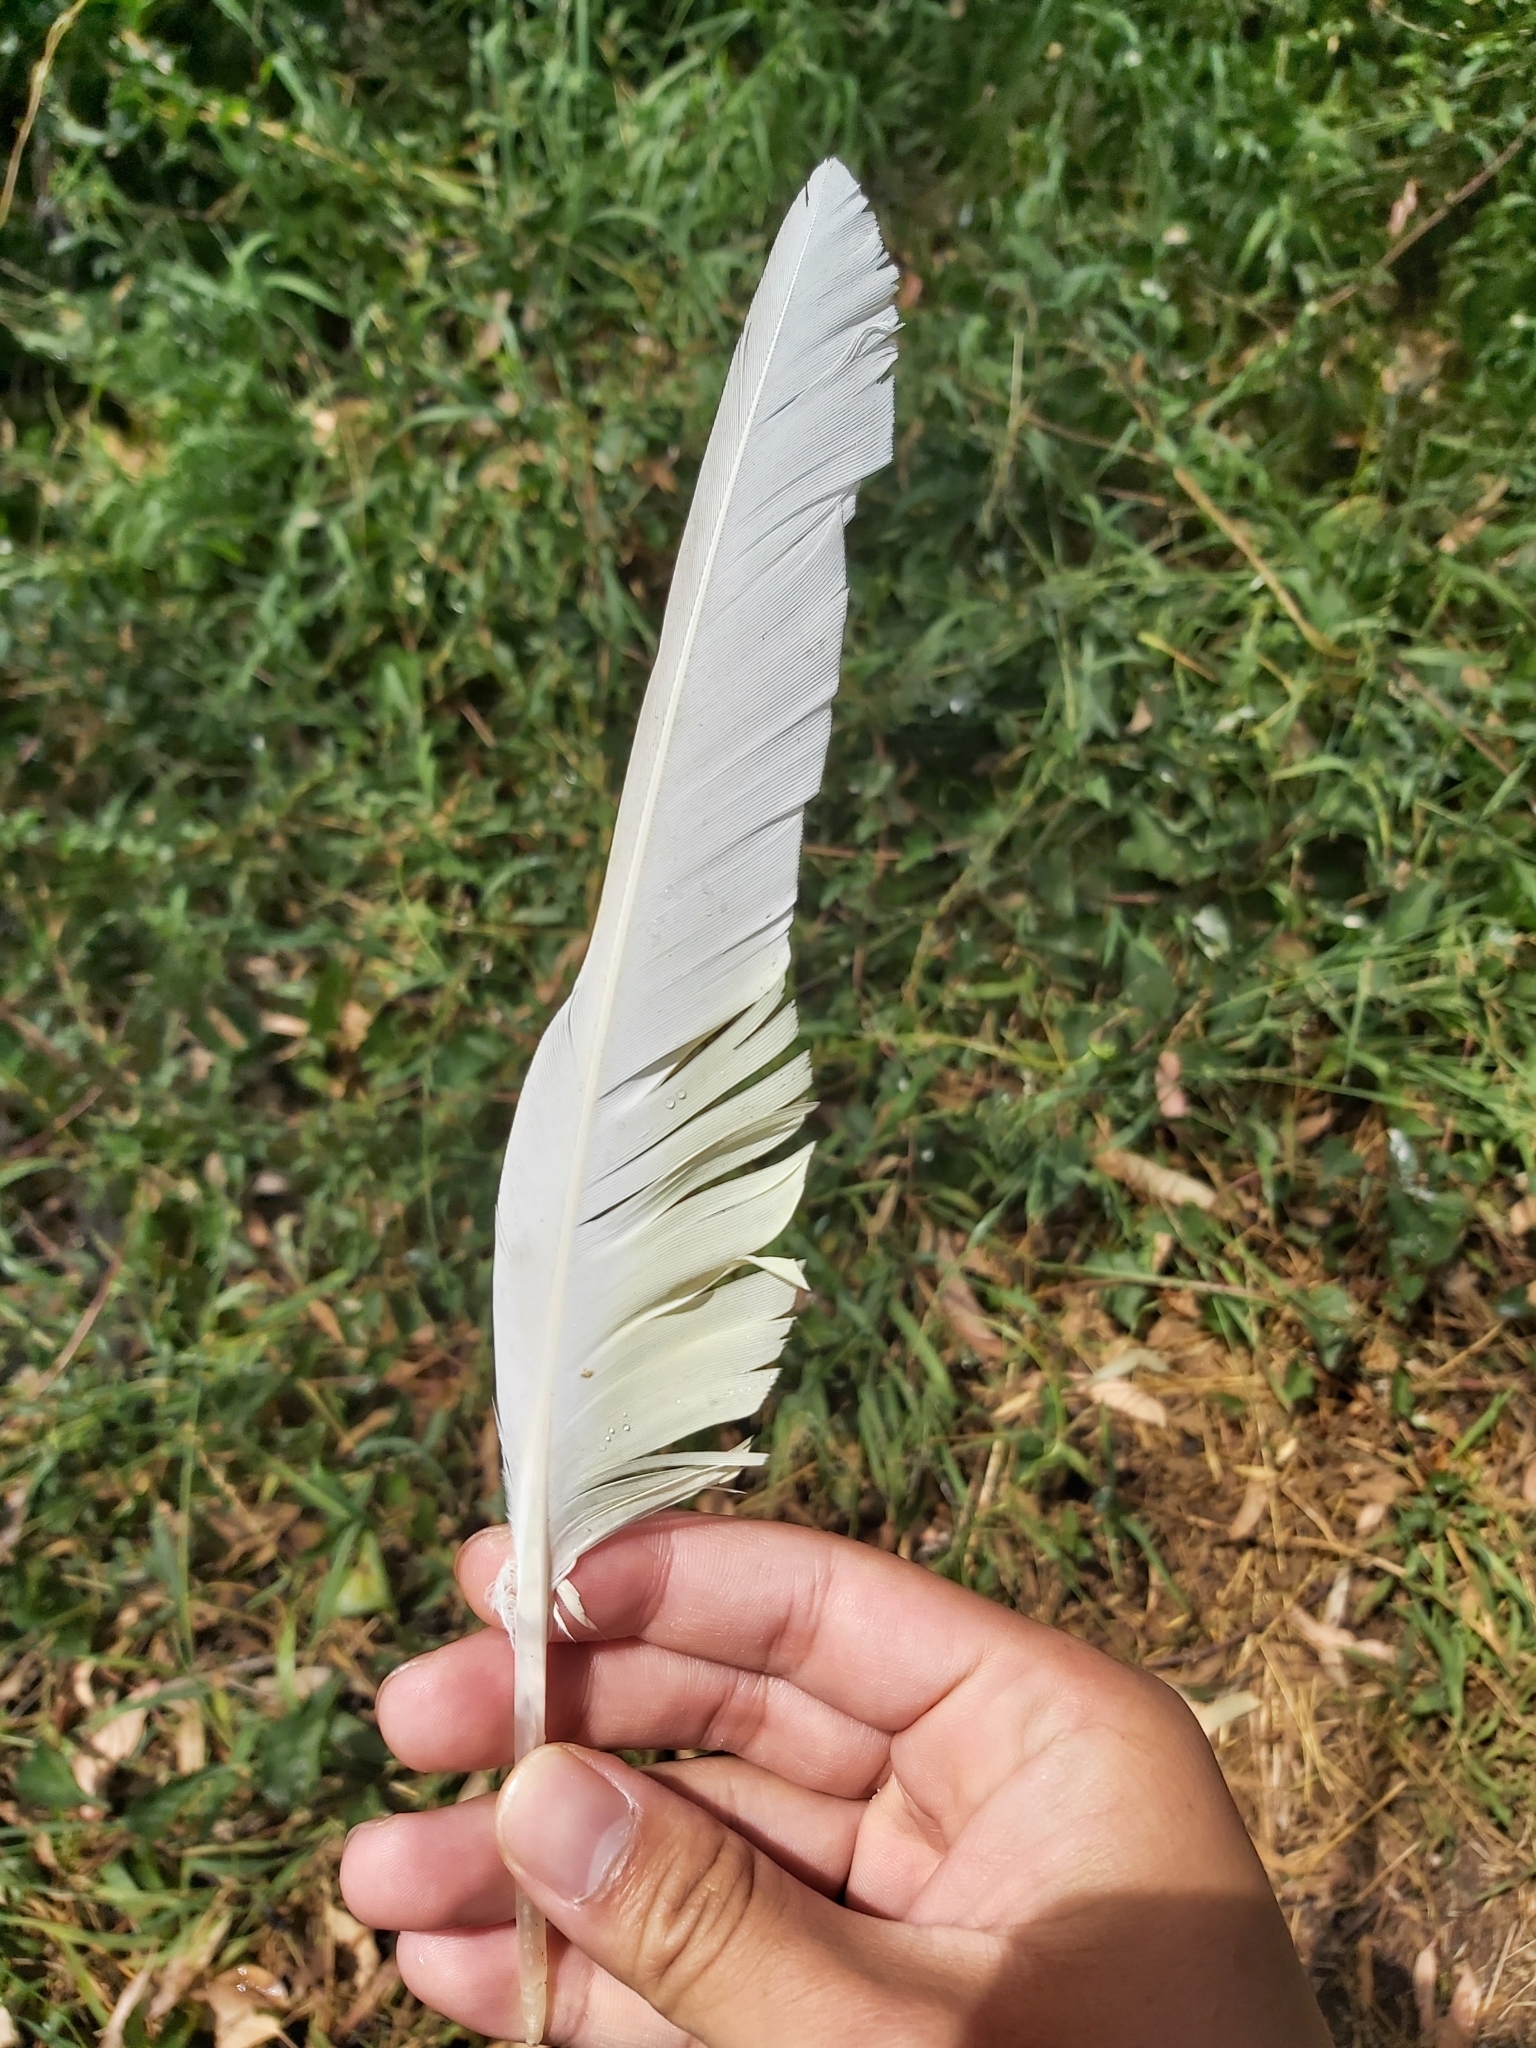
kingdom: Animalia
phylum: Chordata
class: Aves
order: Psittaciformes
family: Psittacidae
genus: Cacatua
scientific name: Cacatua galerita
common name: Sulphur-crested cockatoo
